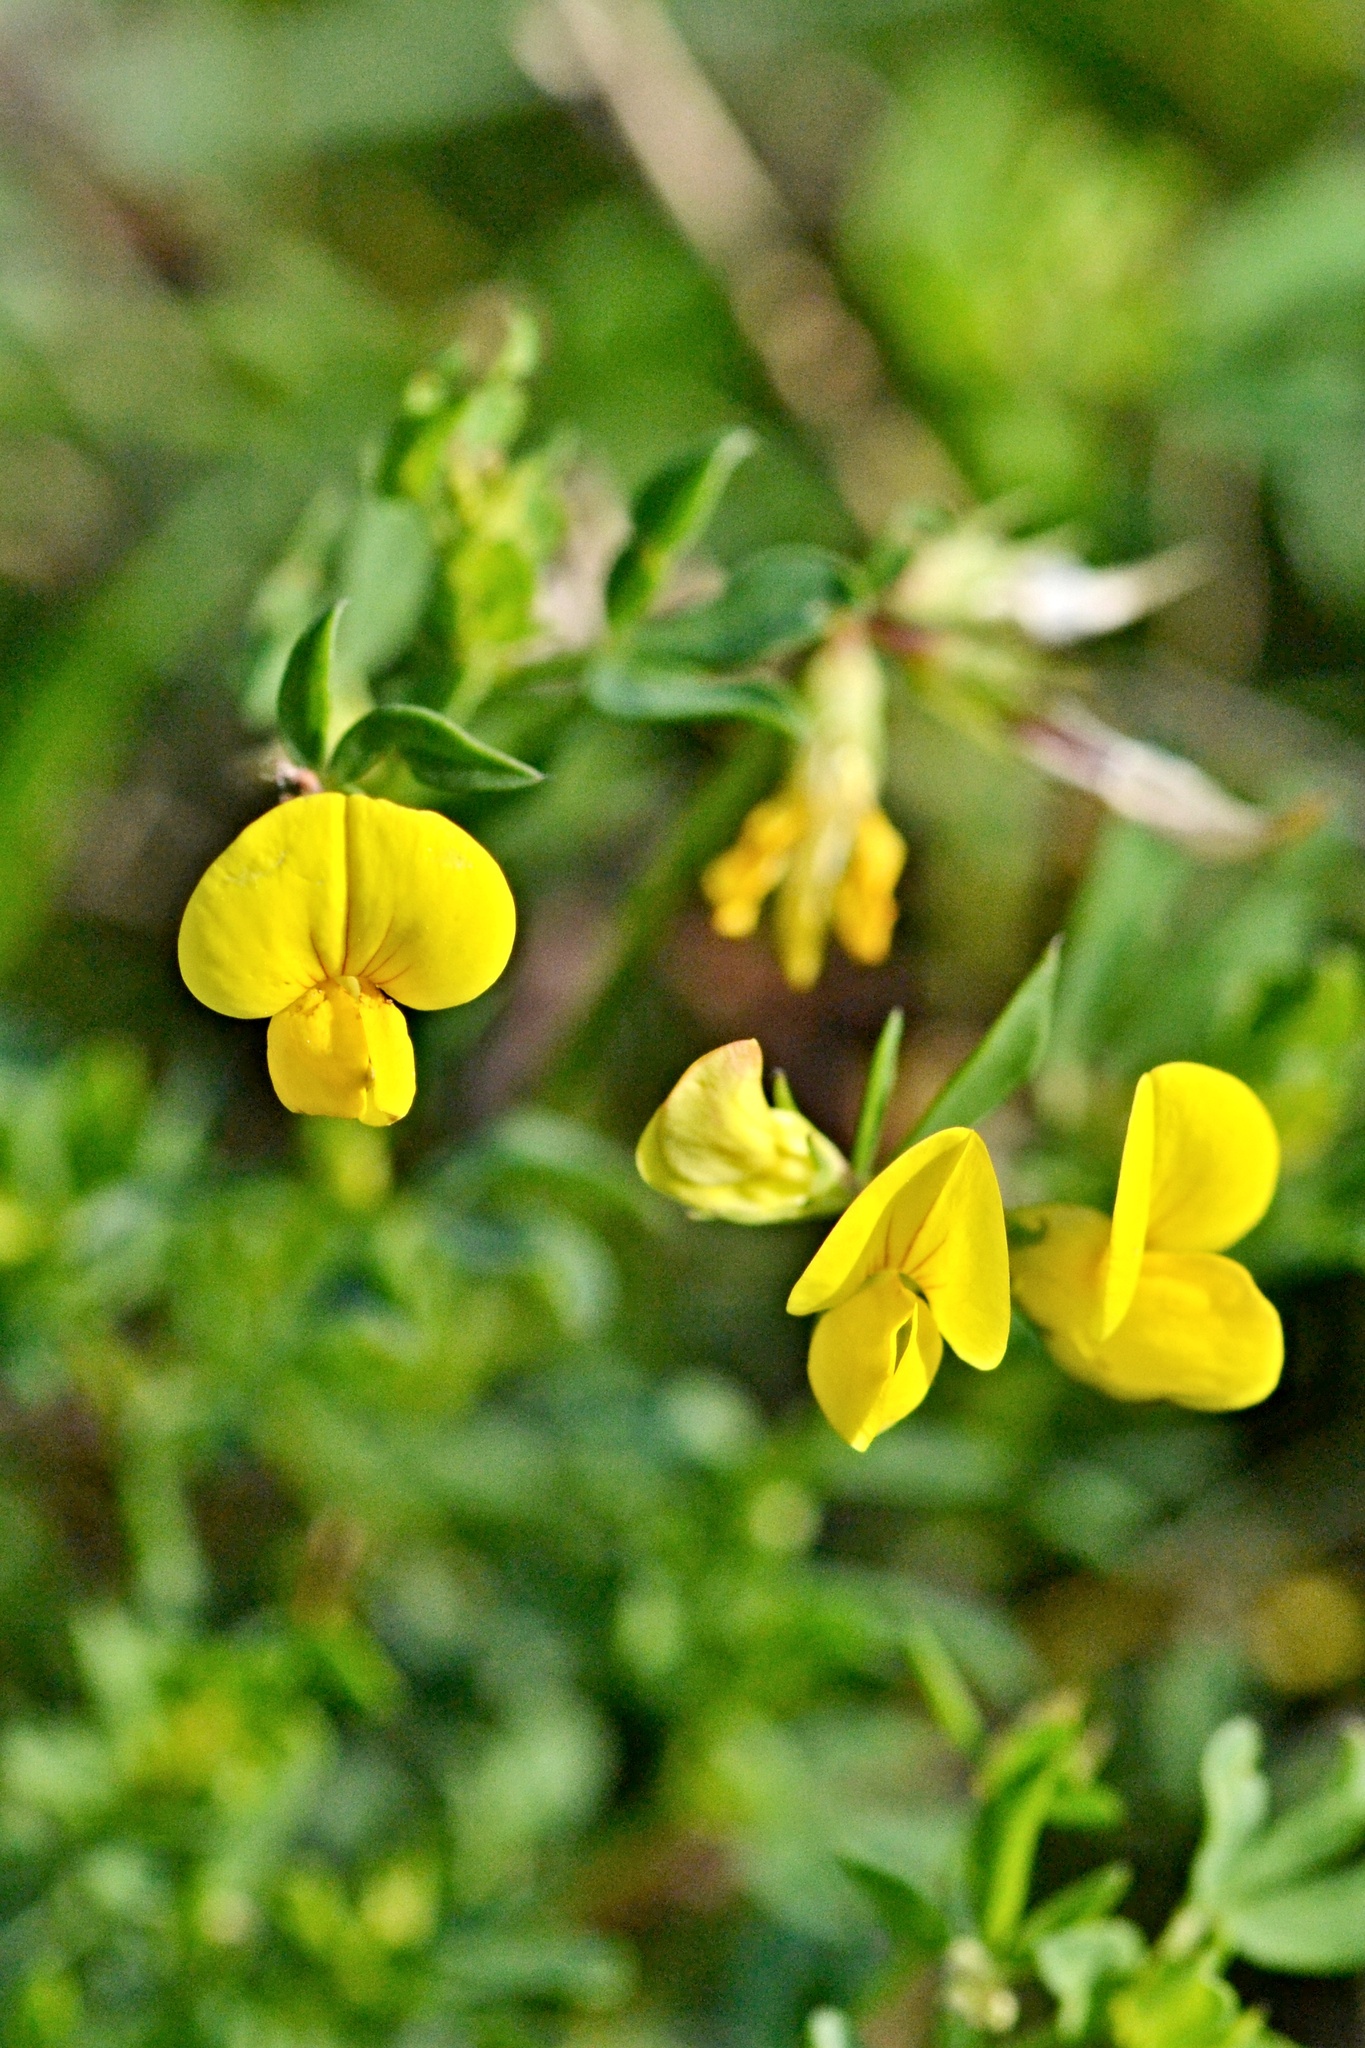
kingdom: Plantae
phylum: Tracheophyta
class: Magnoliopsida
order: Fabales
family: Fabaceae
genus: Lotus
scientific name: Lotus corniculatus
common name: Common bird's-foot-trefoil
